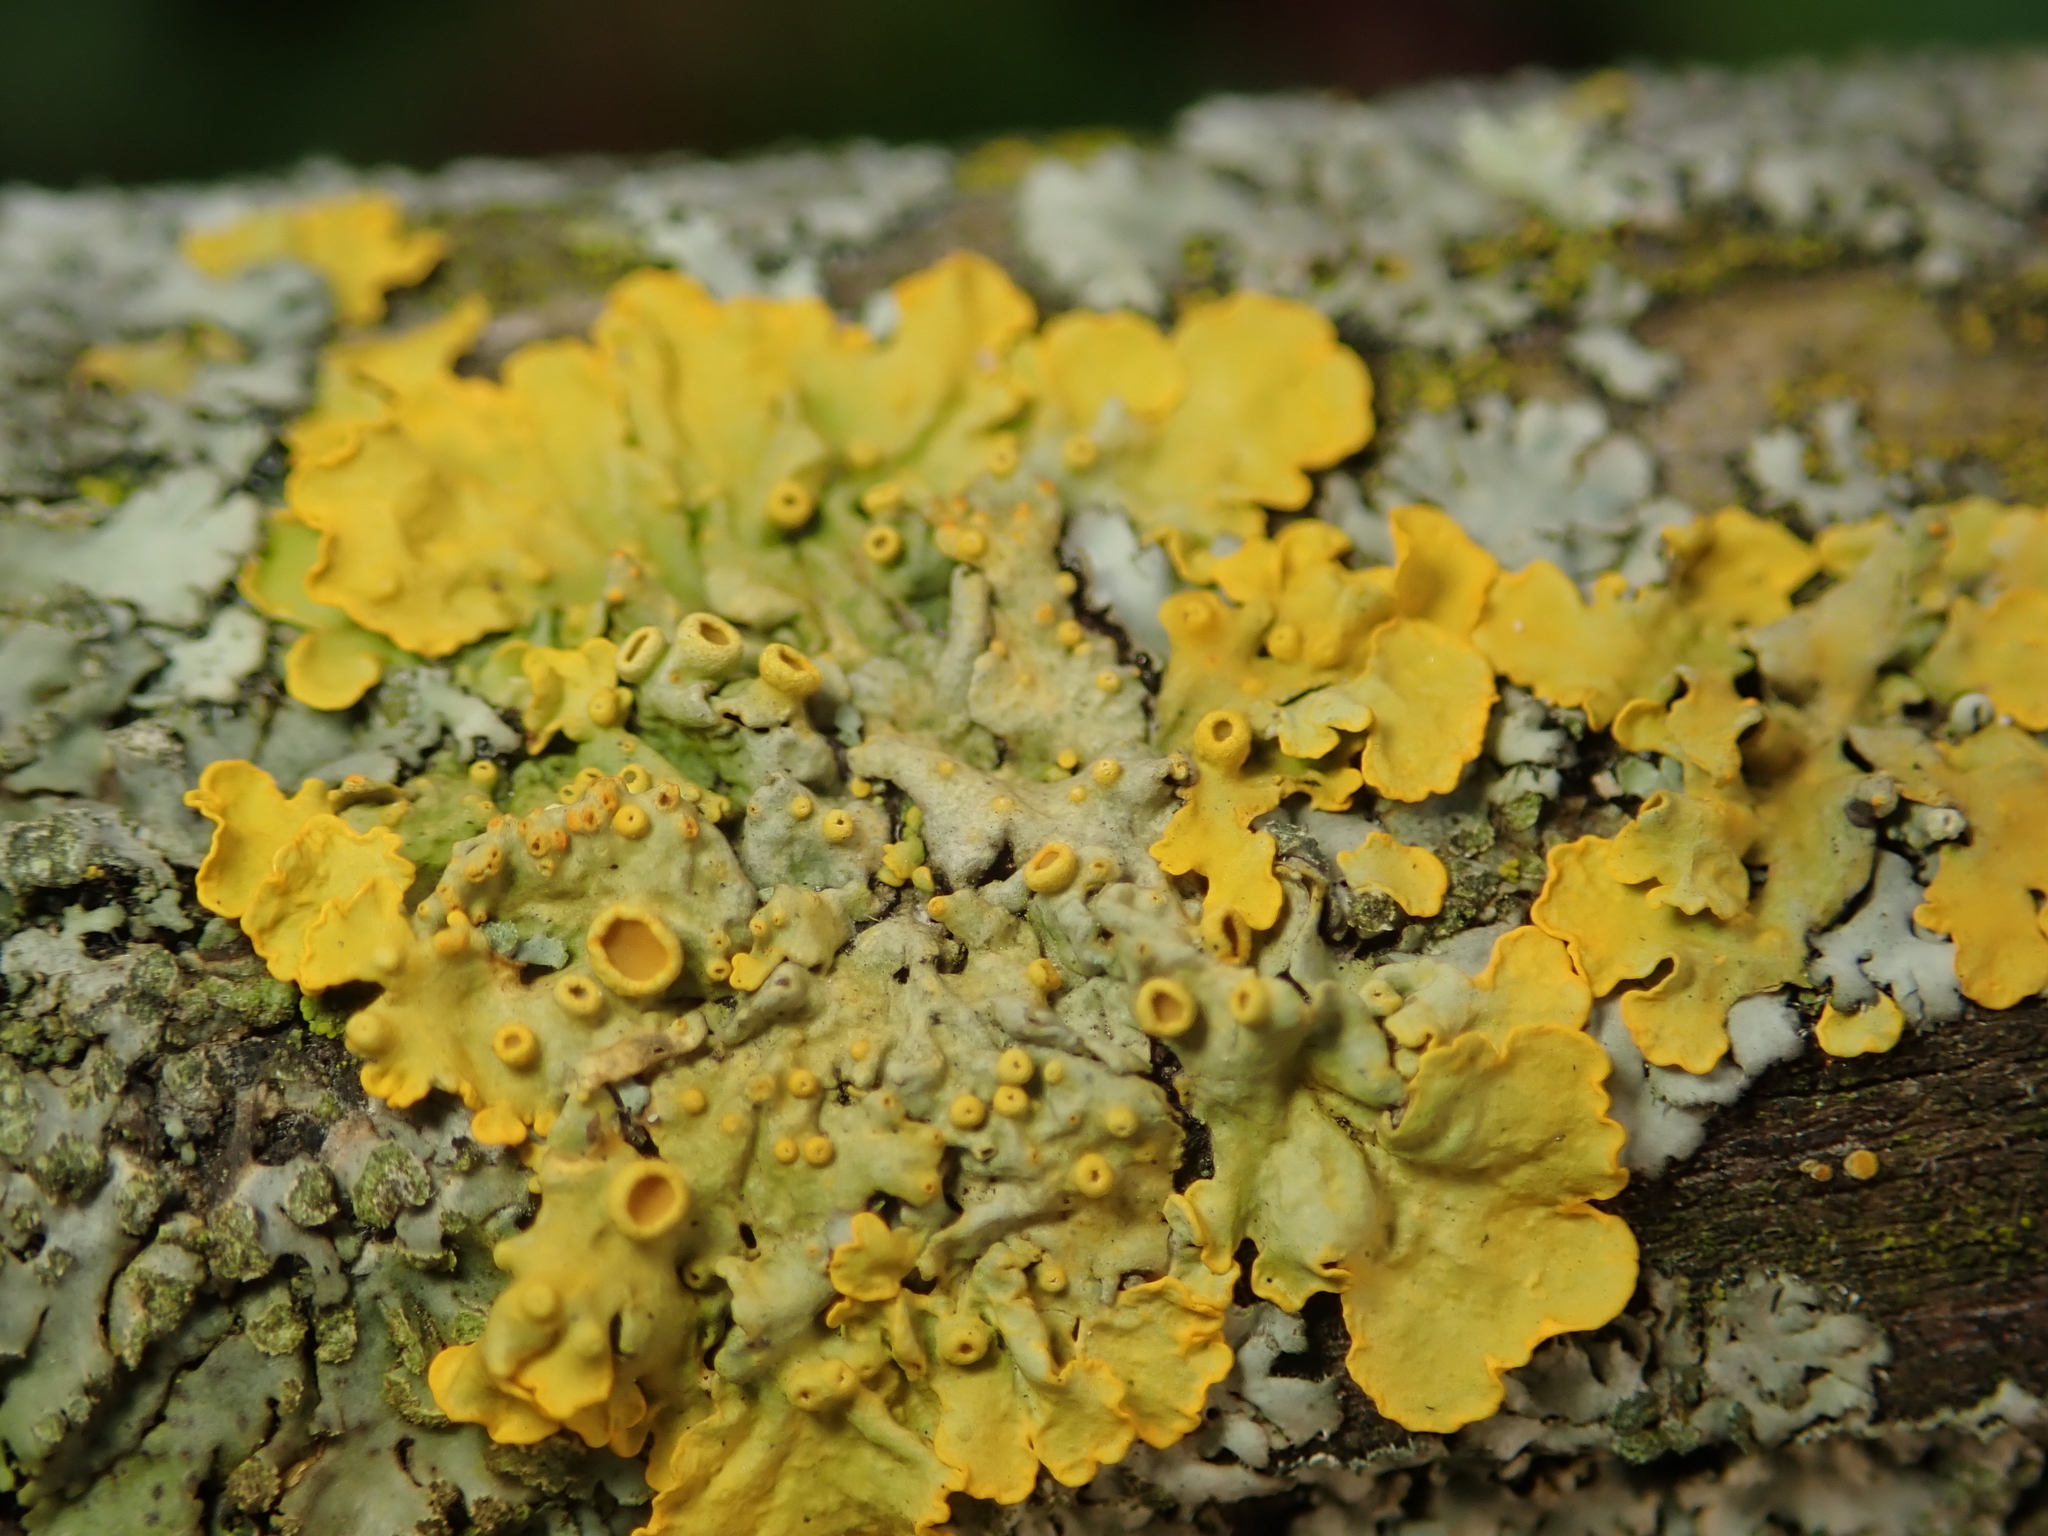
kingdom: Fungi
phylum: Ascomycota
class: Lecanoromycetes
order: Teloschistales
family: Teloschistaceae
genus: Xanthoria
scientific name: Xanthoria parietina
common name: Common orange lichen
